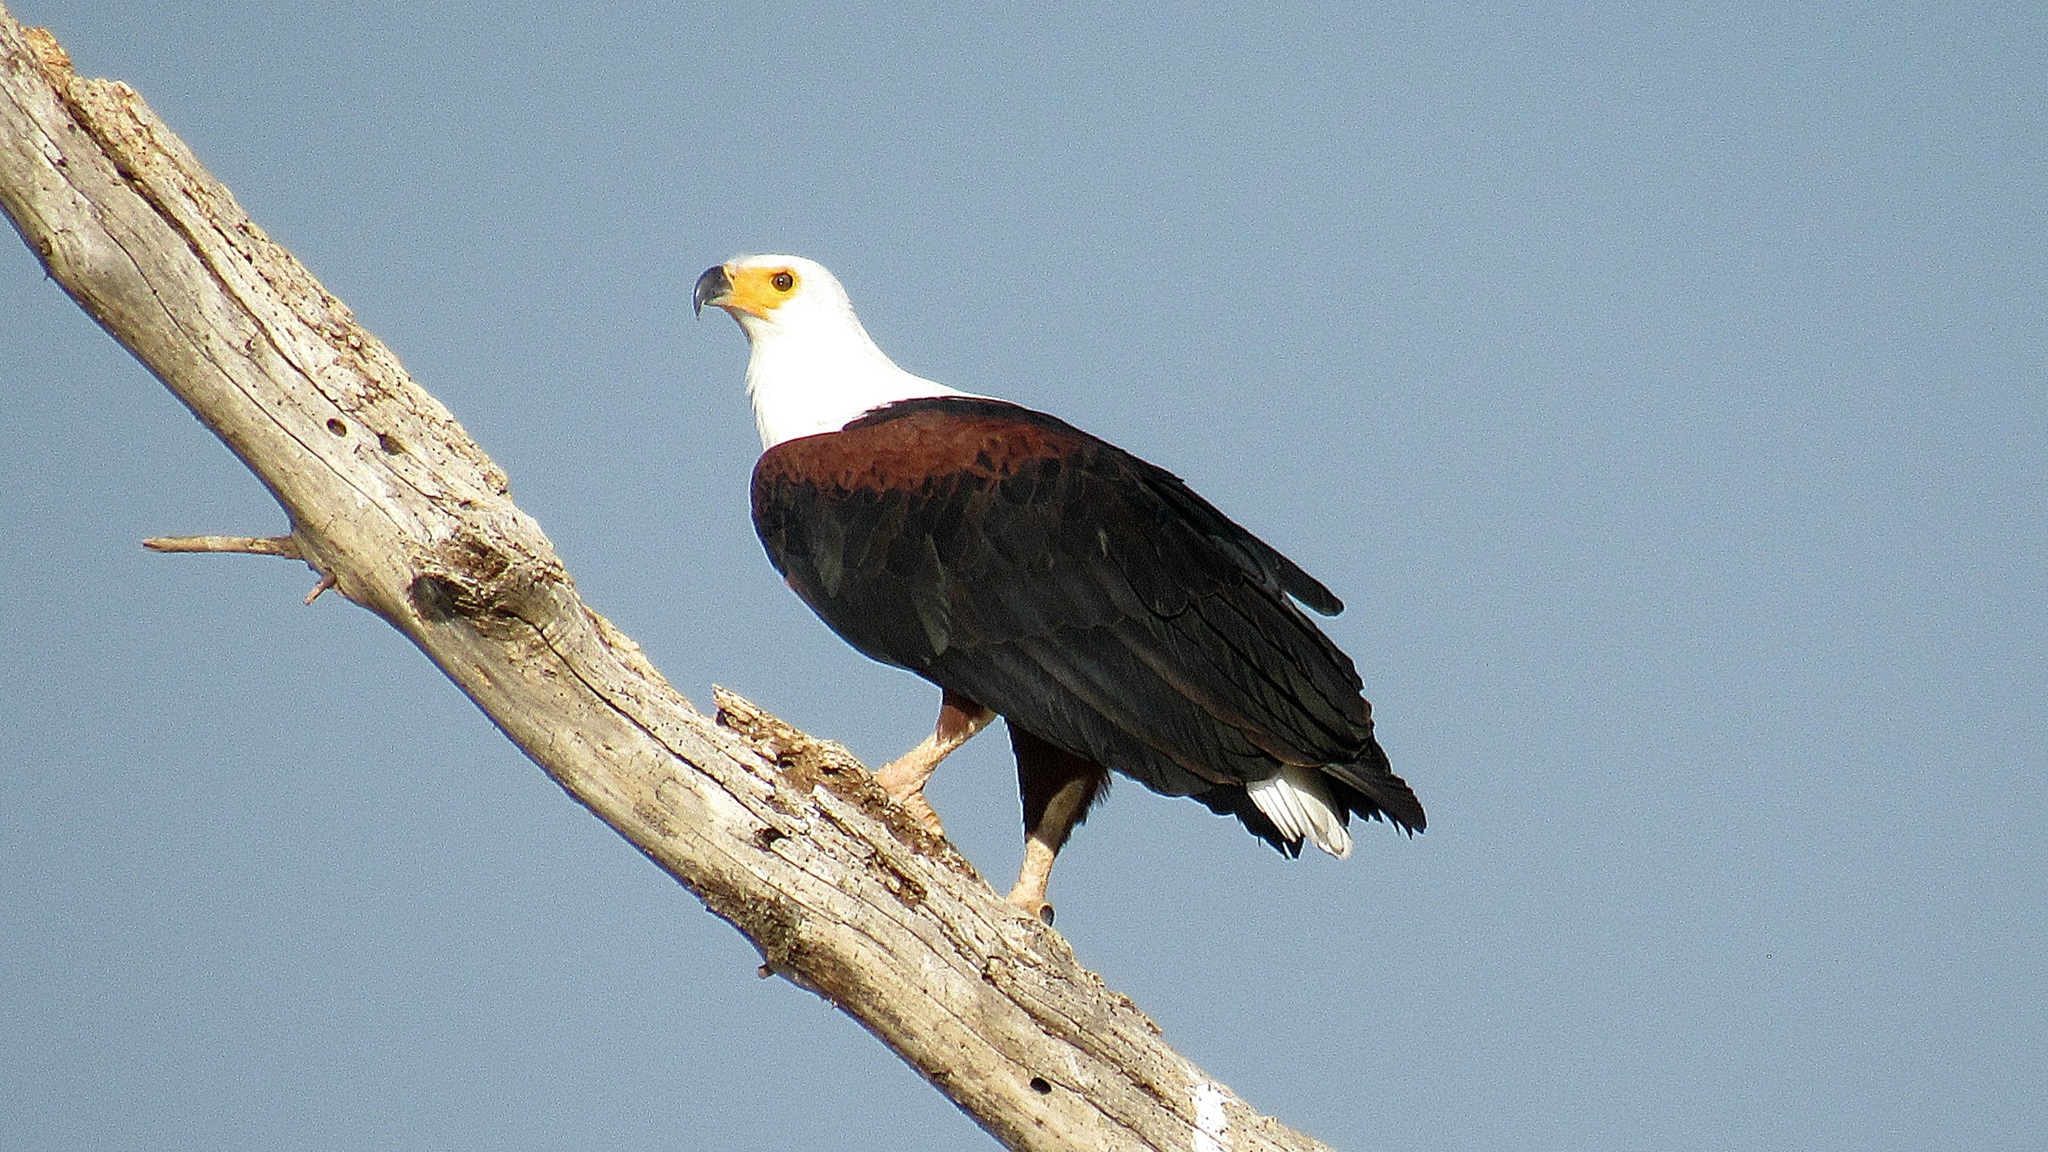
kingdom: Animalia
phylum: Chordata
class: Aves
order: Accipitriformes
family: Accipitridae
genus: Haliaeetus
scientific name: Haliaeetus vocifer
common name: African fish eagle
